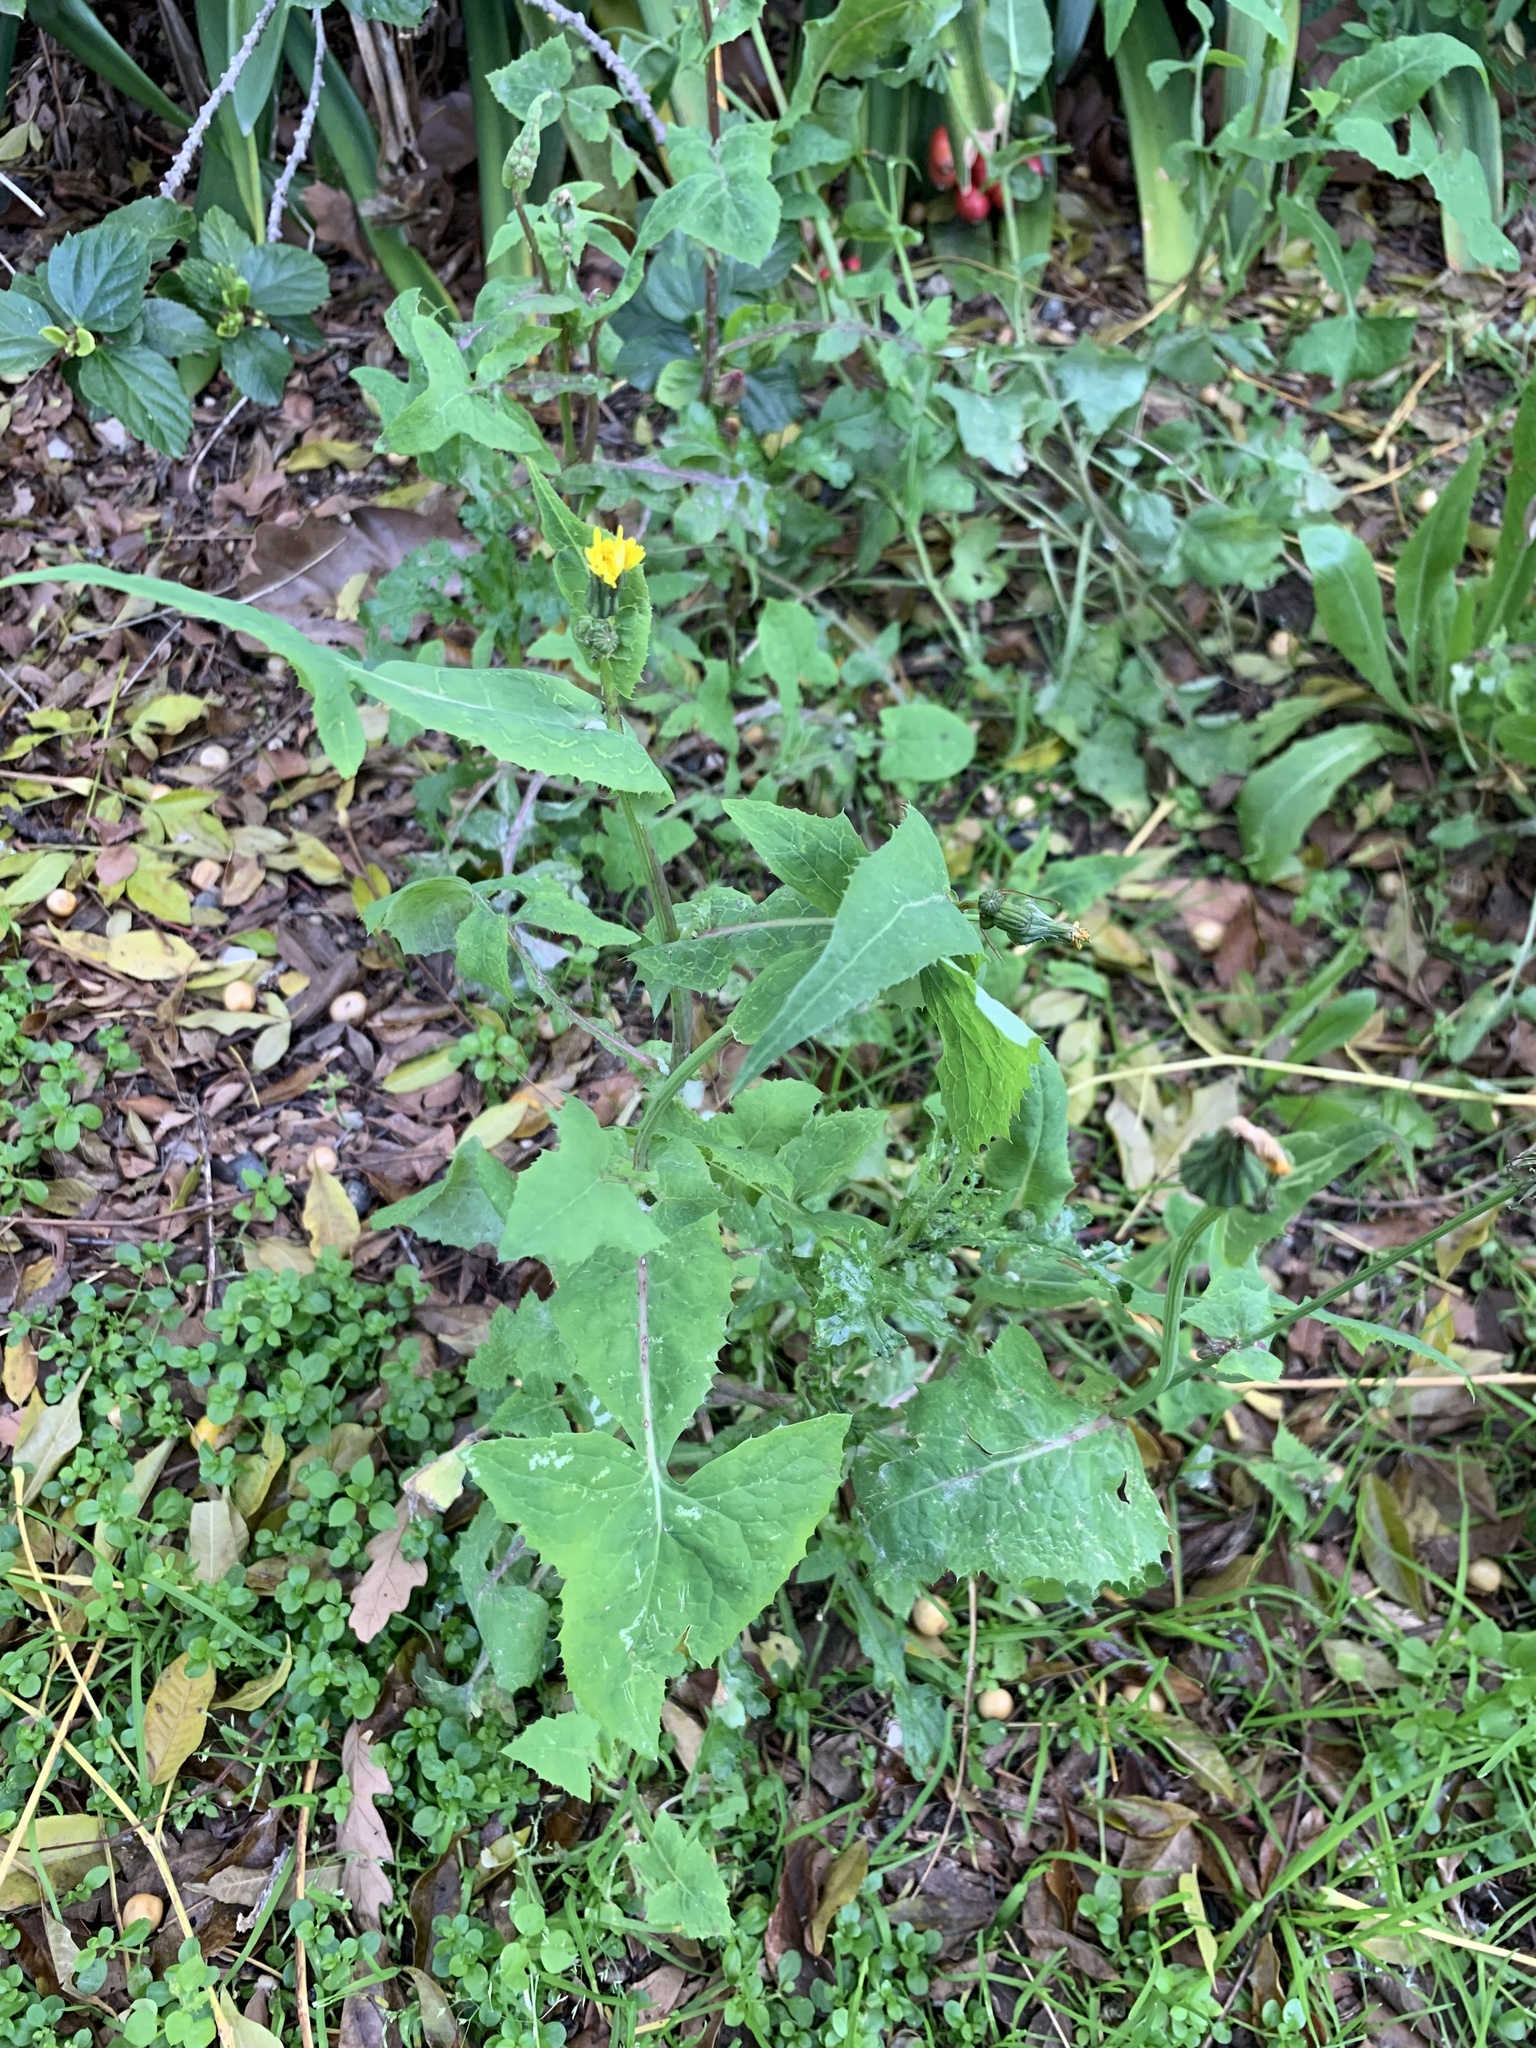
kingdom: Plantae
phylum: Tracheophyta
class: Magnoliopsida
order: Asterales
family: Asteraceae
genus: Sonchus
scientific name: Sonchus oleraceus
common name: Common sowthistle
